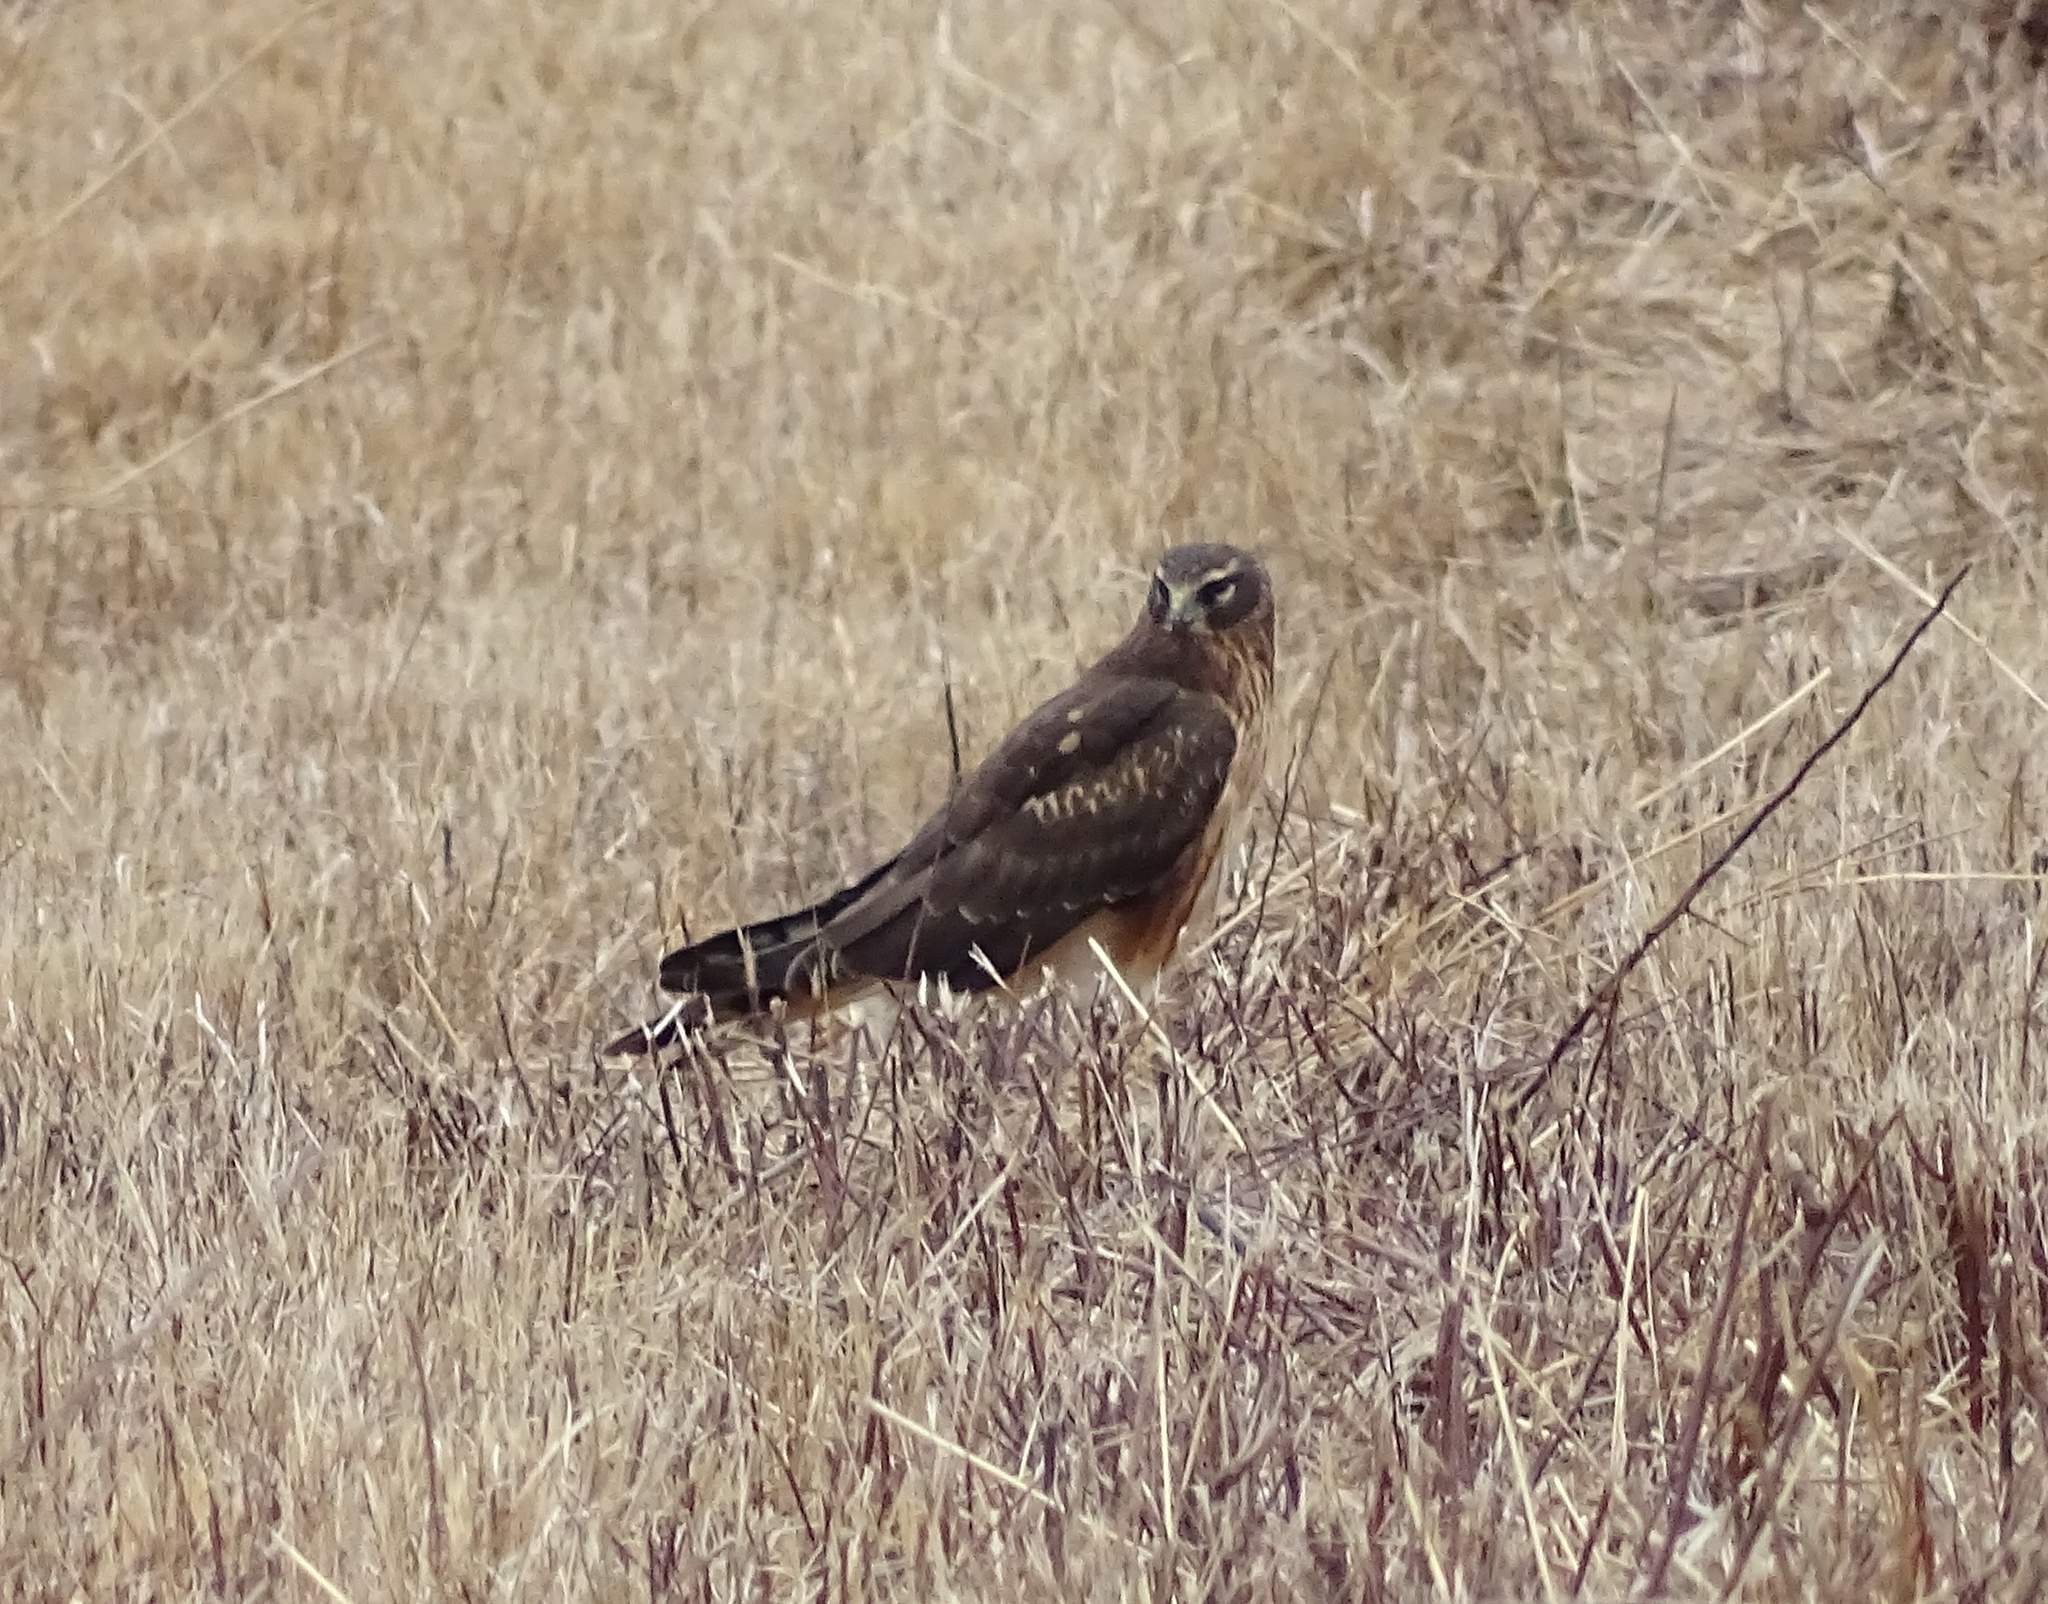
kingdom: Animalia
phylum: Chordata
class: Aves
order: Accipitriformes
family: Accipitridae
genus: Circus
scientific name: Circus cyaneus
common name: Hen harrier
